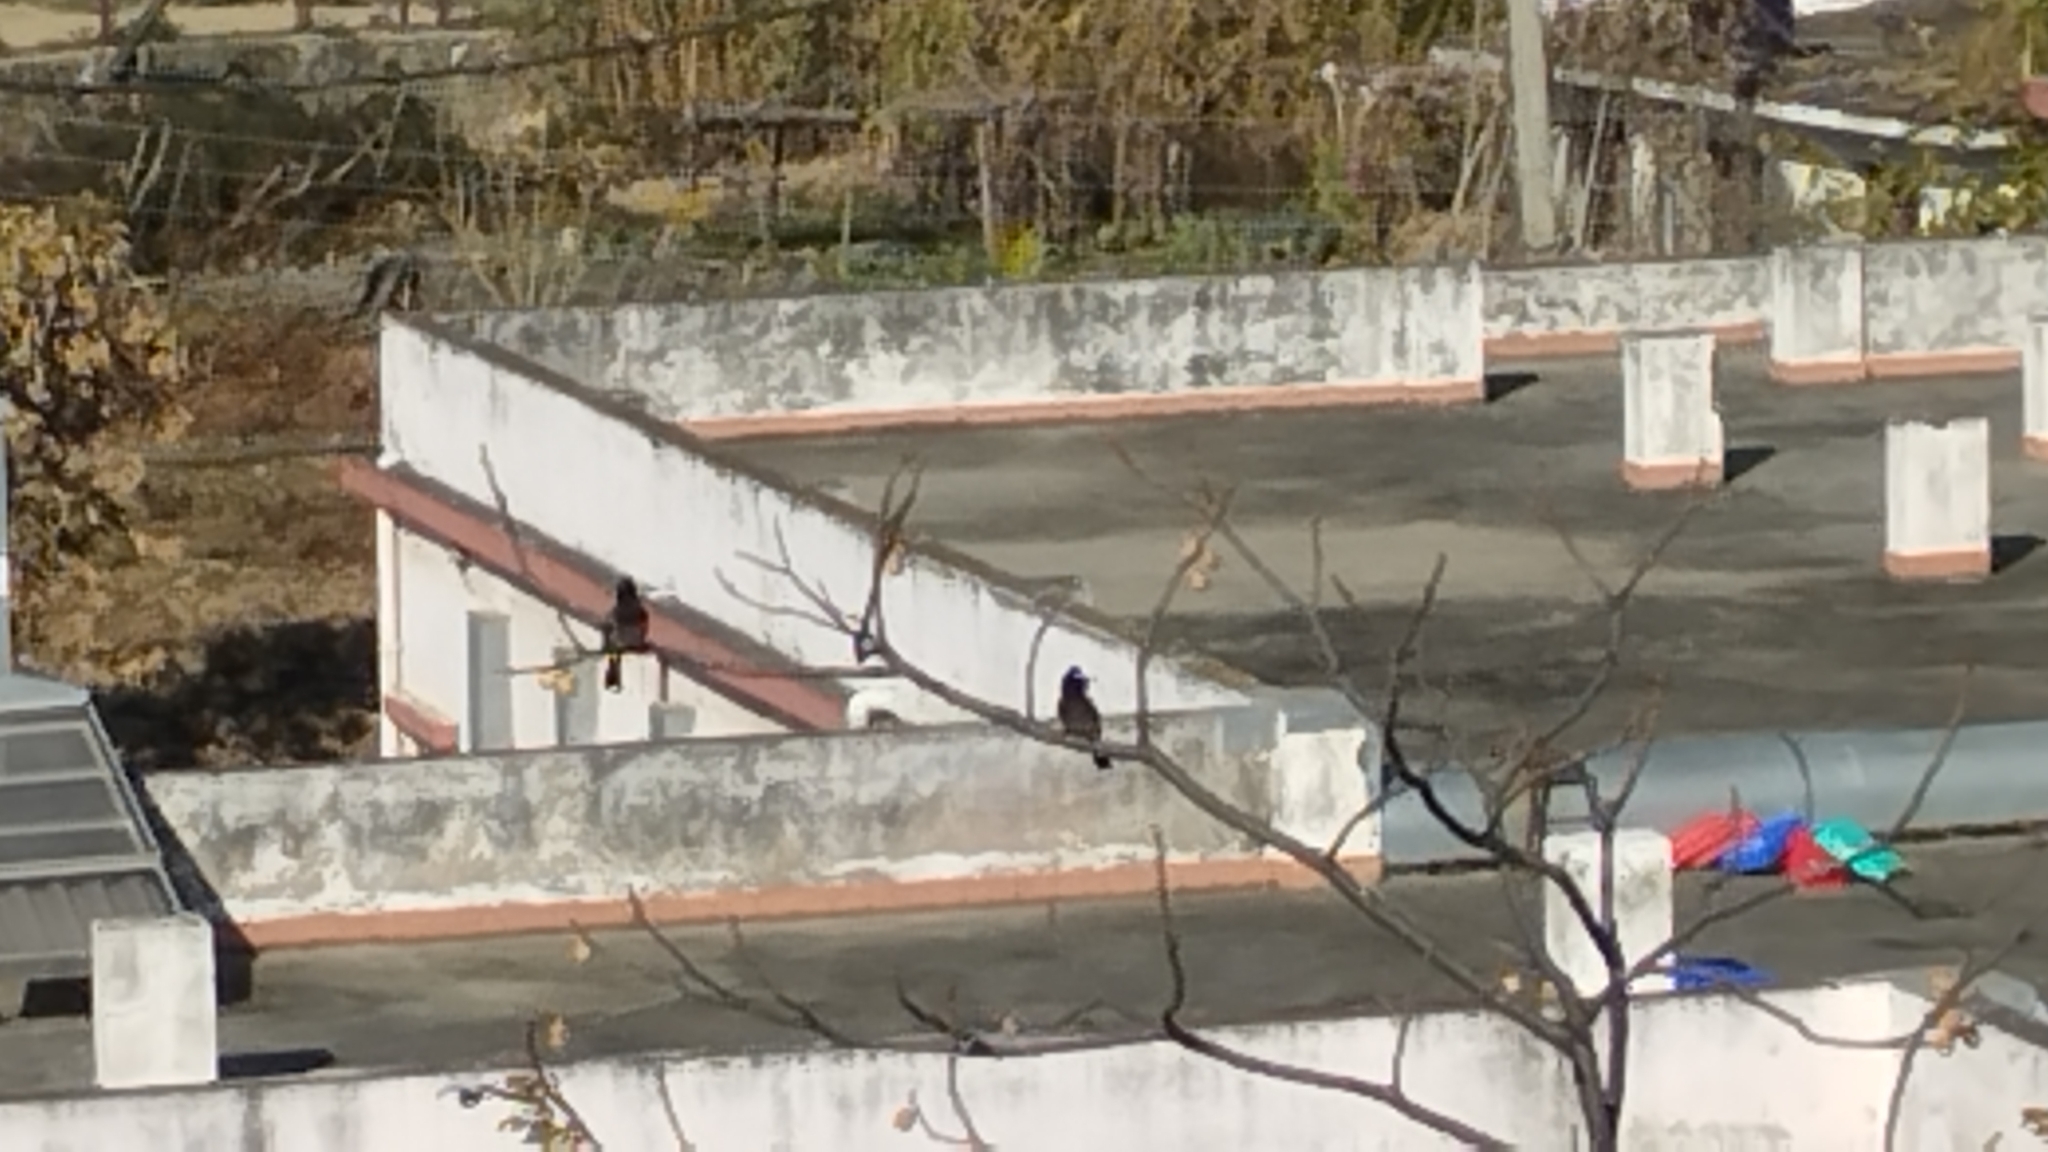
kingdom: Animalia
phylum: Chordata
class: Aves
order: Passeriformes
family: Pycnonotidae
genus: Pycnonotus
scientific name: Pycnonotus cafer
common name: Red-vented bulbul
